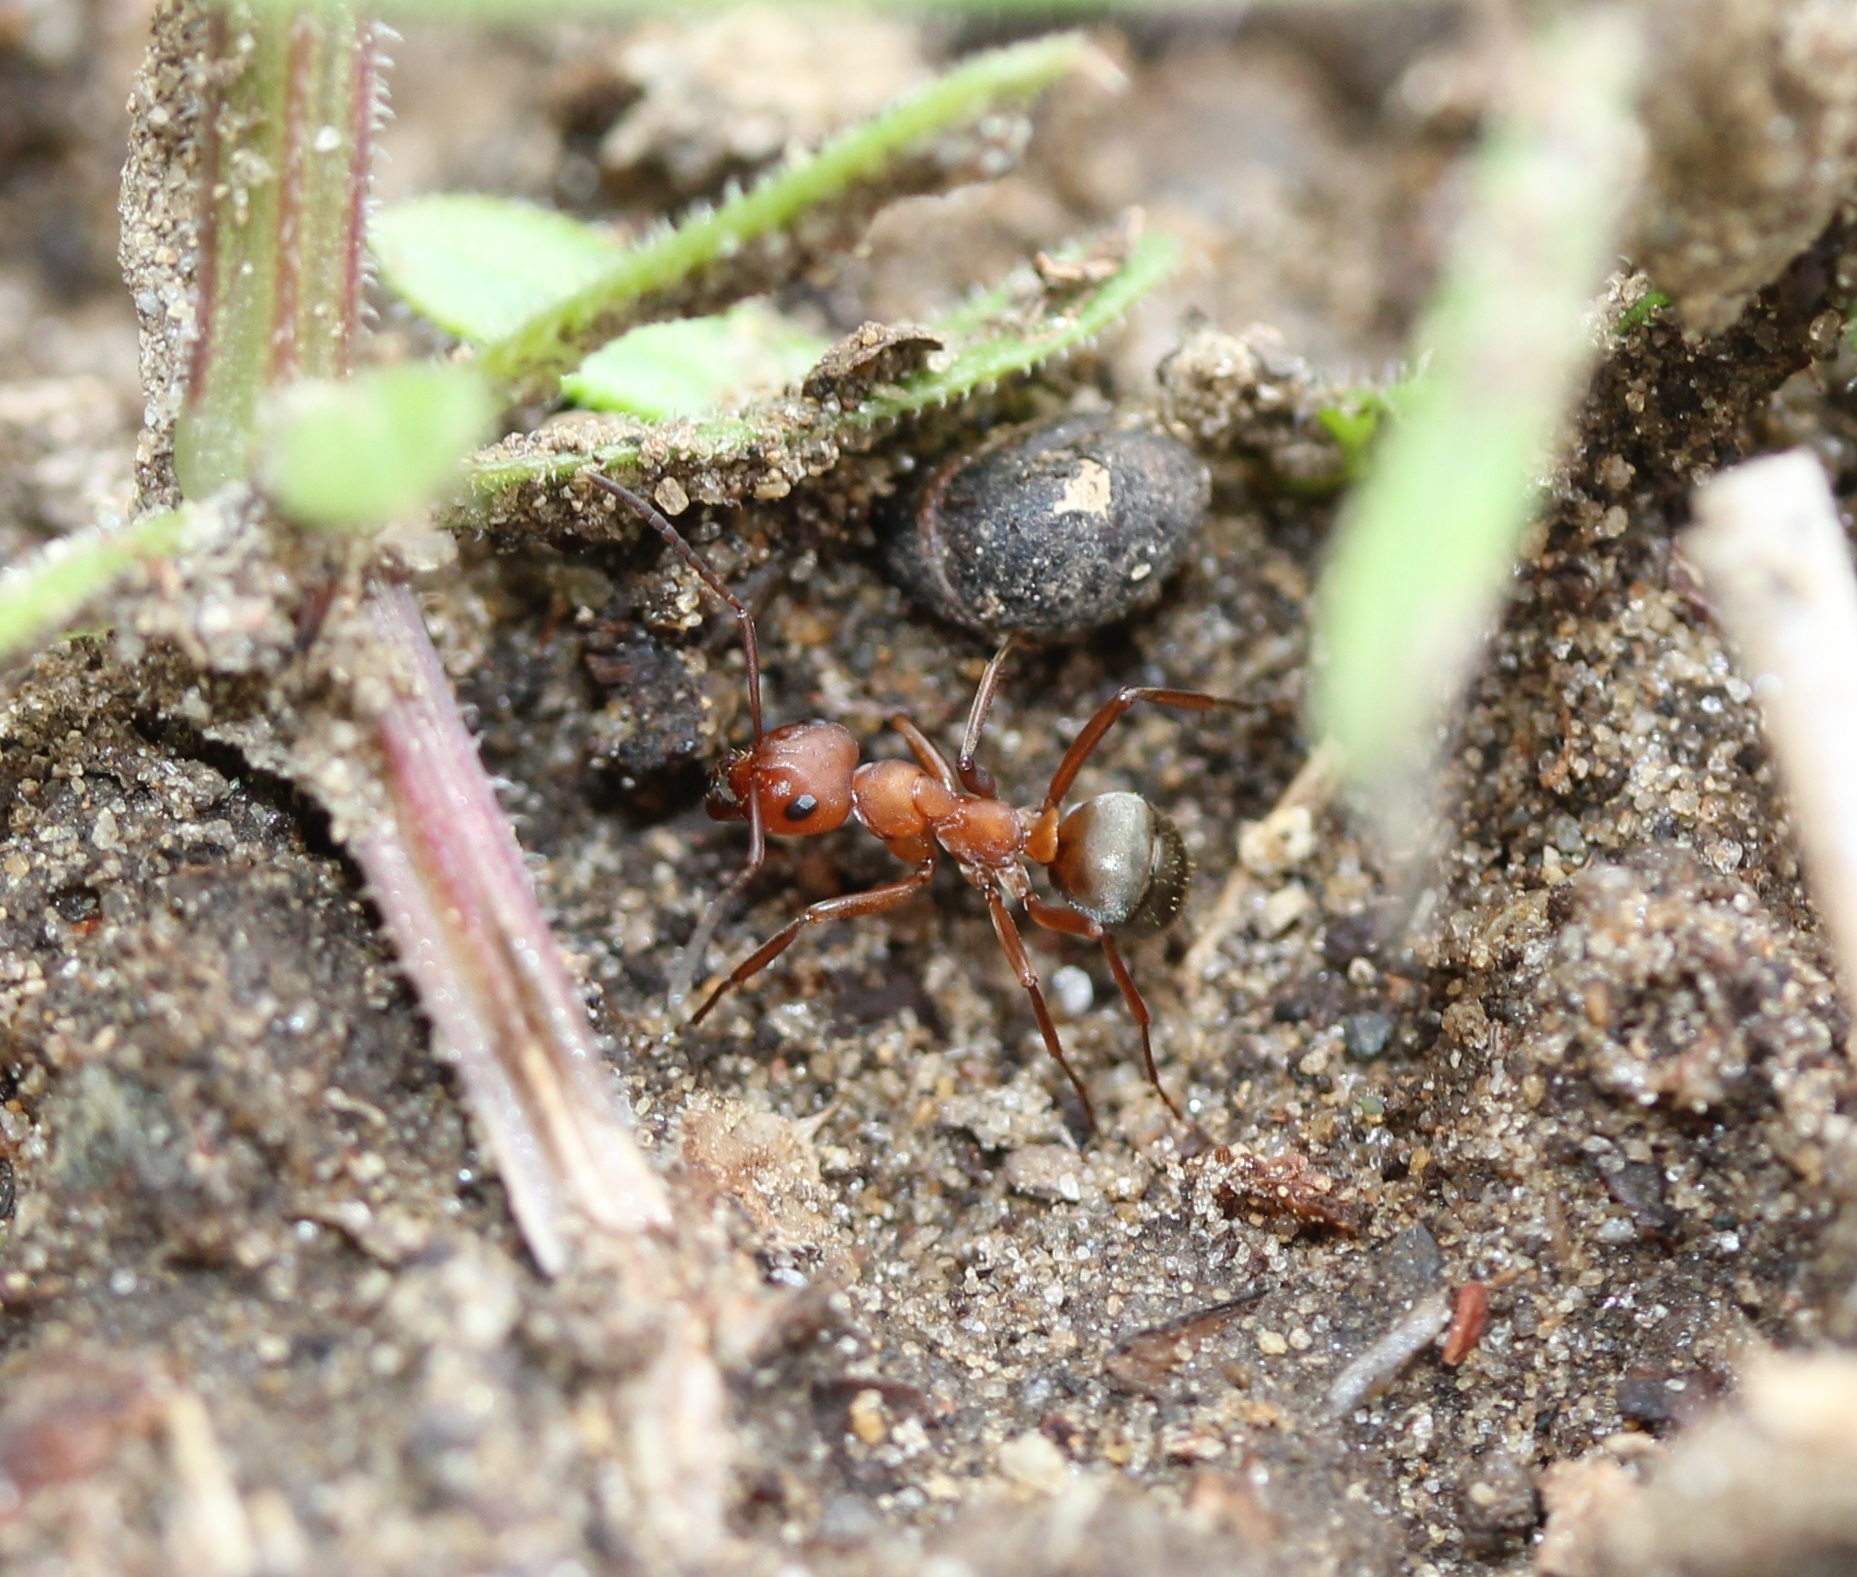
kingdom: Animalia
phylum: Arthropoda
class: Insecta
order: Hymenoptera
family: Formicidae
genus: Formica
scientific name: Formica subintegra
